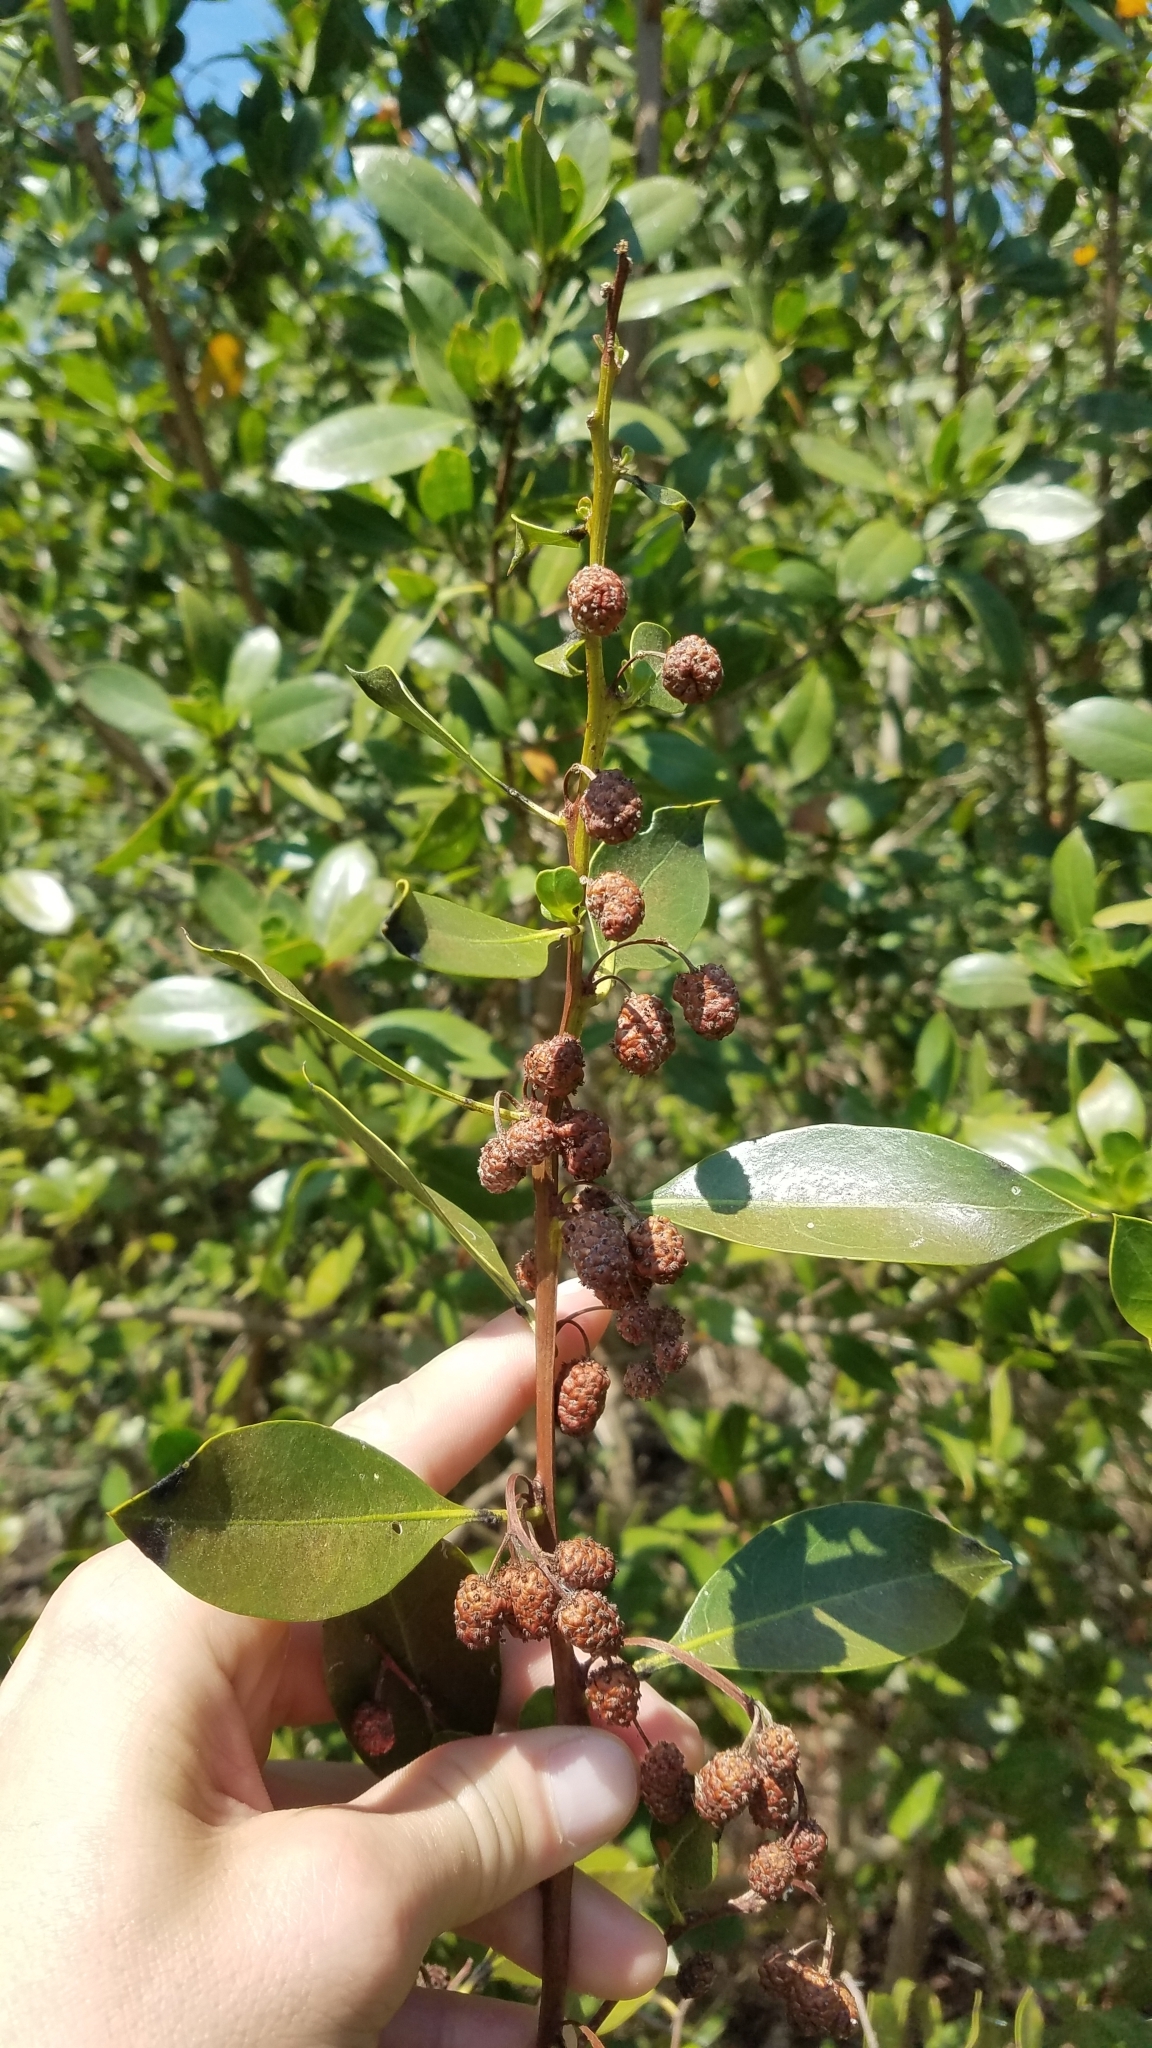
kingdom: Plantae
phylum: Tracheophyta
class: Magnoliopsida
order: Myrtales
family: Combretaceae
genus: Conocarpus
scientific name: Conocarpus erectus
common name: Button mangrove
